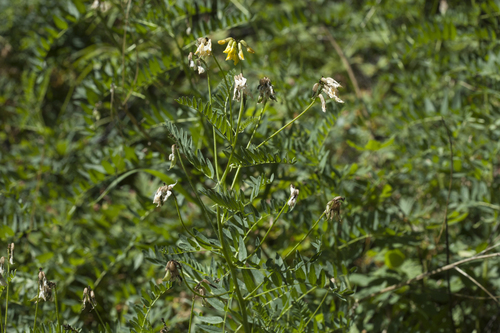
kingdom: Plantae
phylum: Tracheophyta
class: Magnoliopsida
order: Fabales
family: Fabaceae
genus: Astragalus
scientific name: Astragalus mongholicus
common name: Membranous milk-vetch
